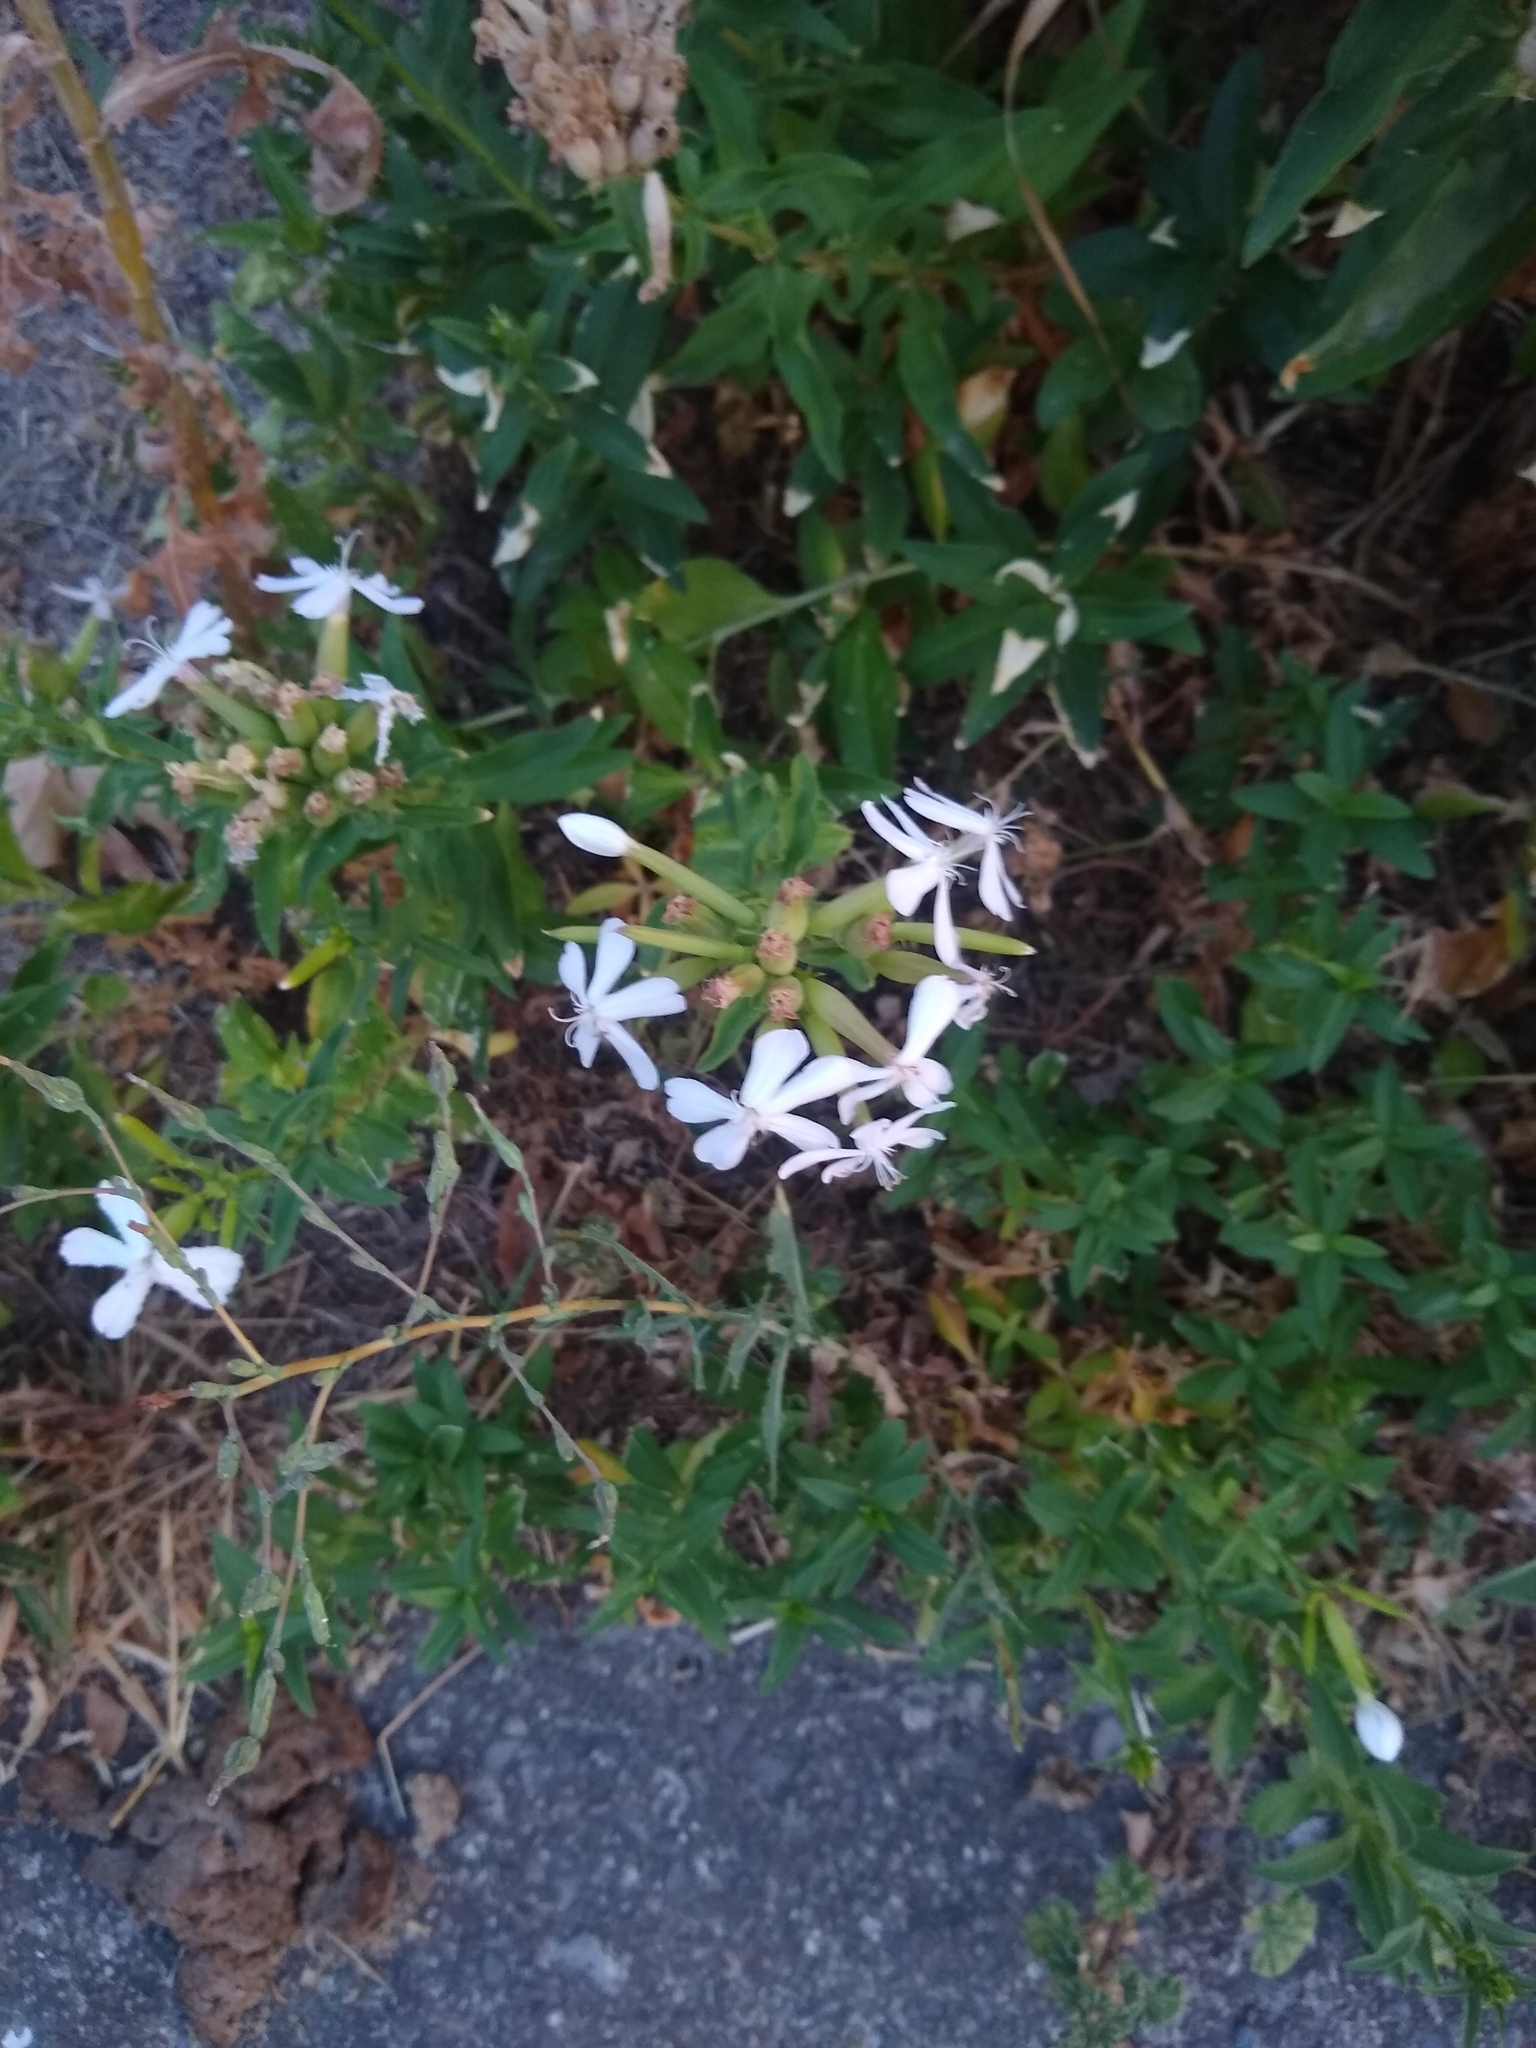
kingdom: Plantae
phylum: Tracheophyta
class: Magnoliopsida
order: Caryophyllales
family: Caryophyllaceae
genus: Saponaria
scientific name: Saponaria officinalis
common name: Soapwort
